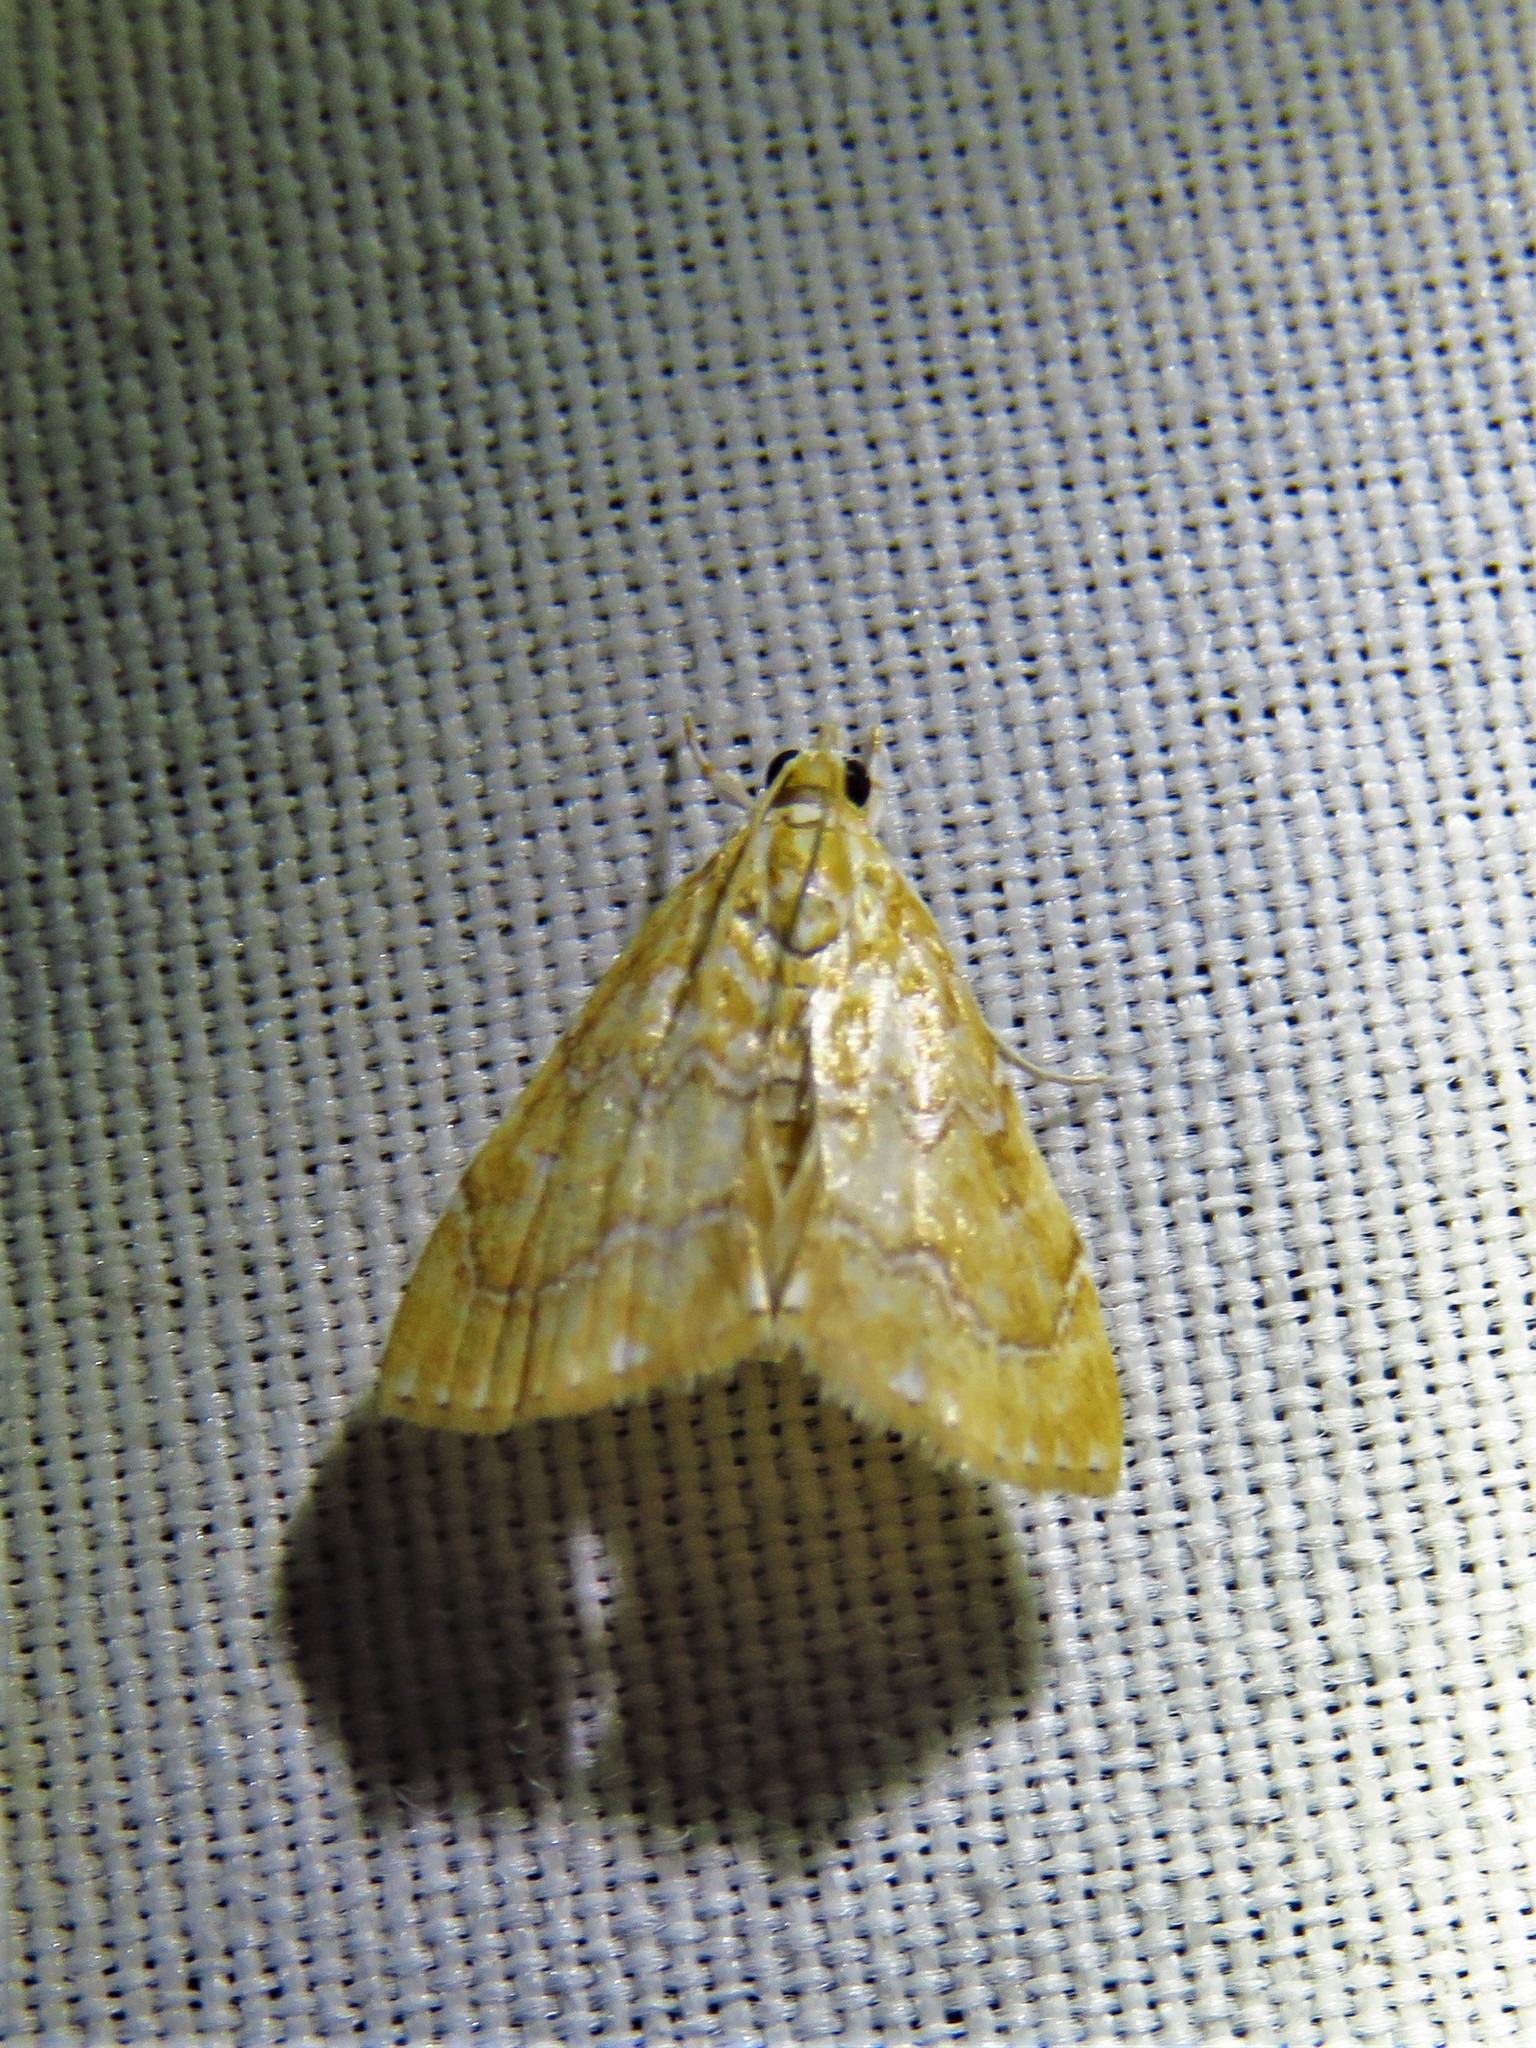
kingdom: Animalia
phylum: Arthropoda
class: Insecta
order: Lepidoptera
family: Crambidae
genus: Glaphyria
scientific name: Glaphyria sesquistrialis
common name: White-roped glaphyria
